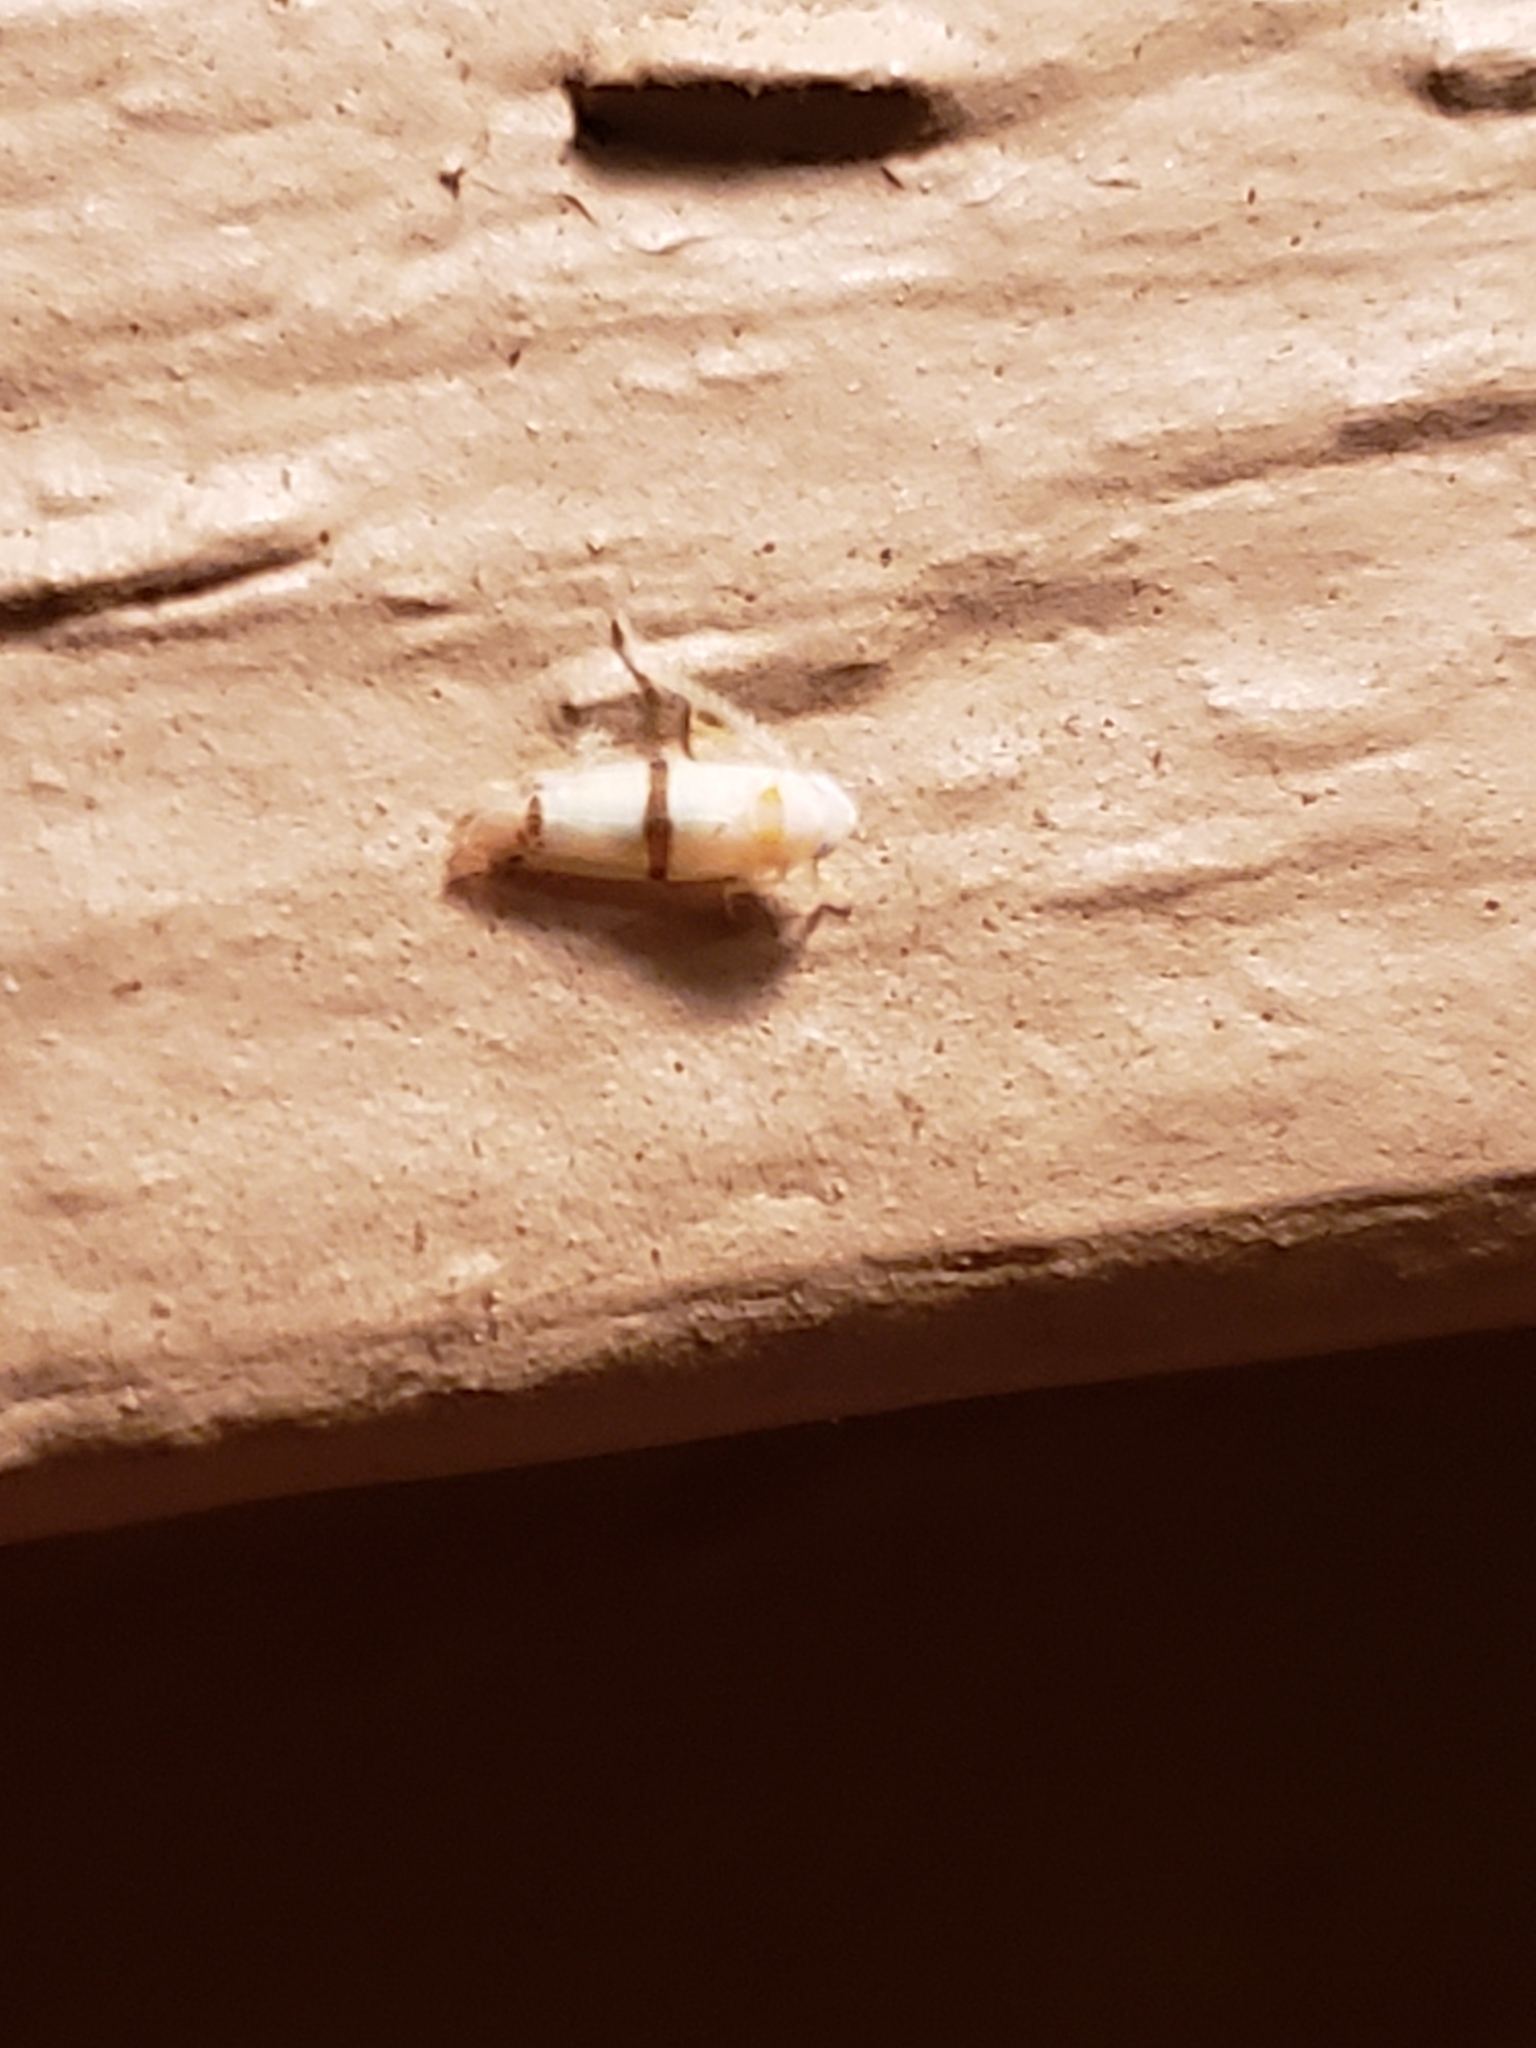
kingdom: Animalia
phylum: Arthropoda
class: Insecta
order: Hemiptera
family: Cicadellidae
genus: Empoa
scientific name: Empoa gillettei
